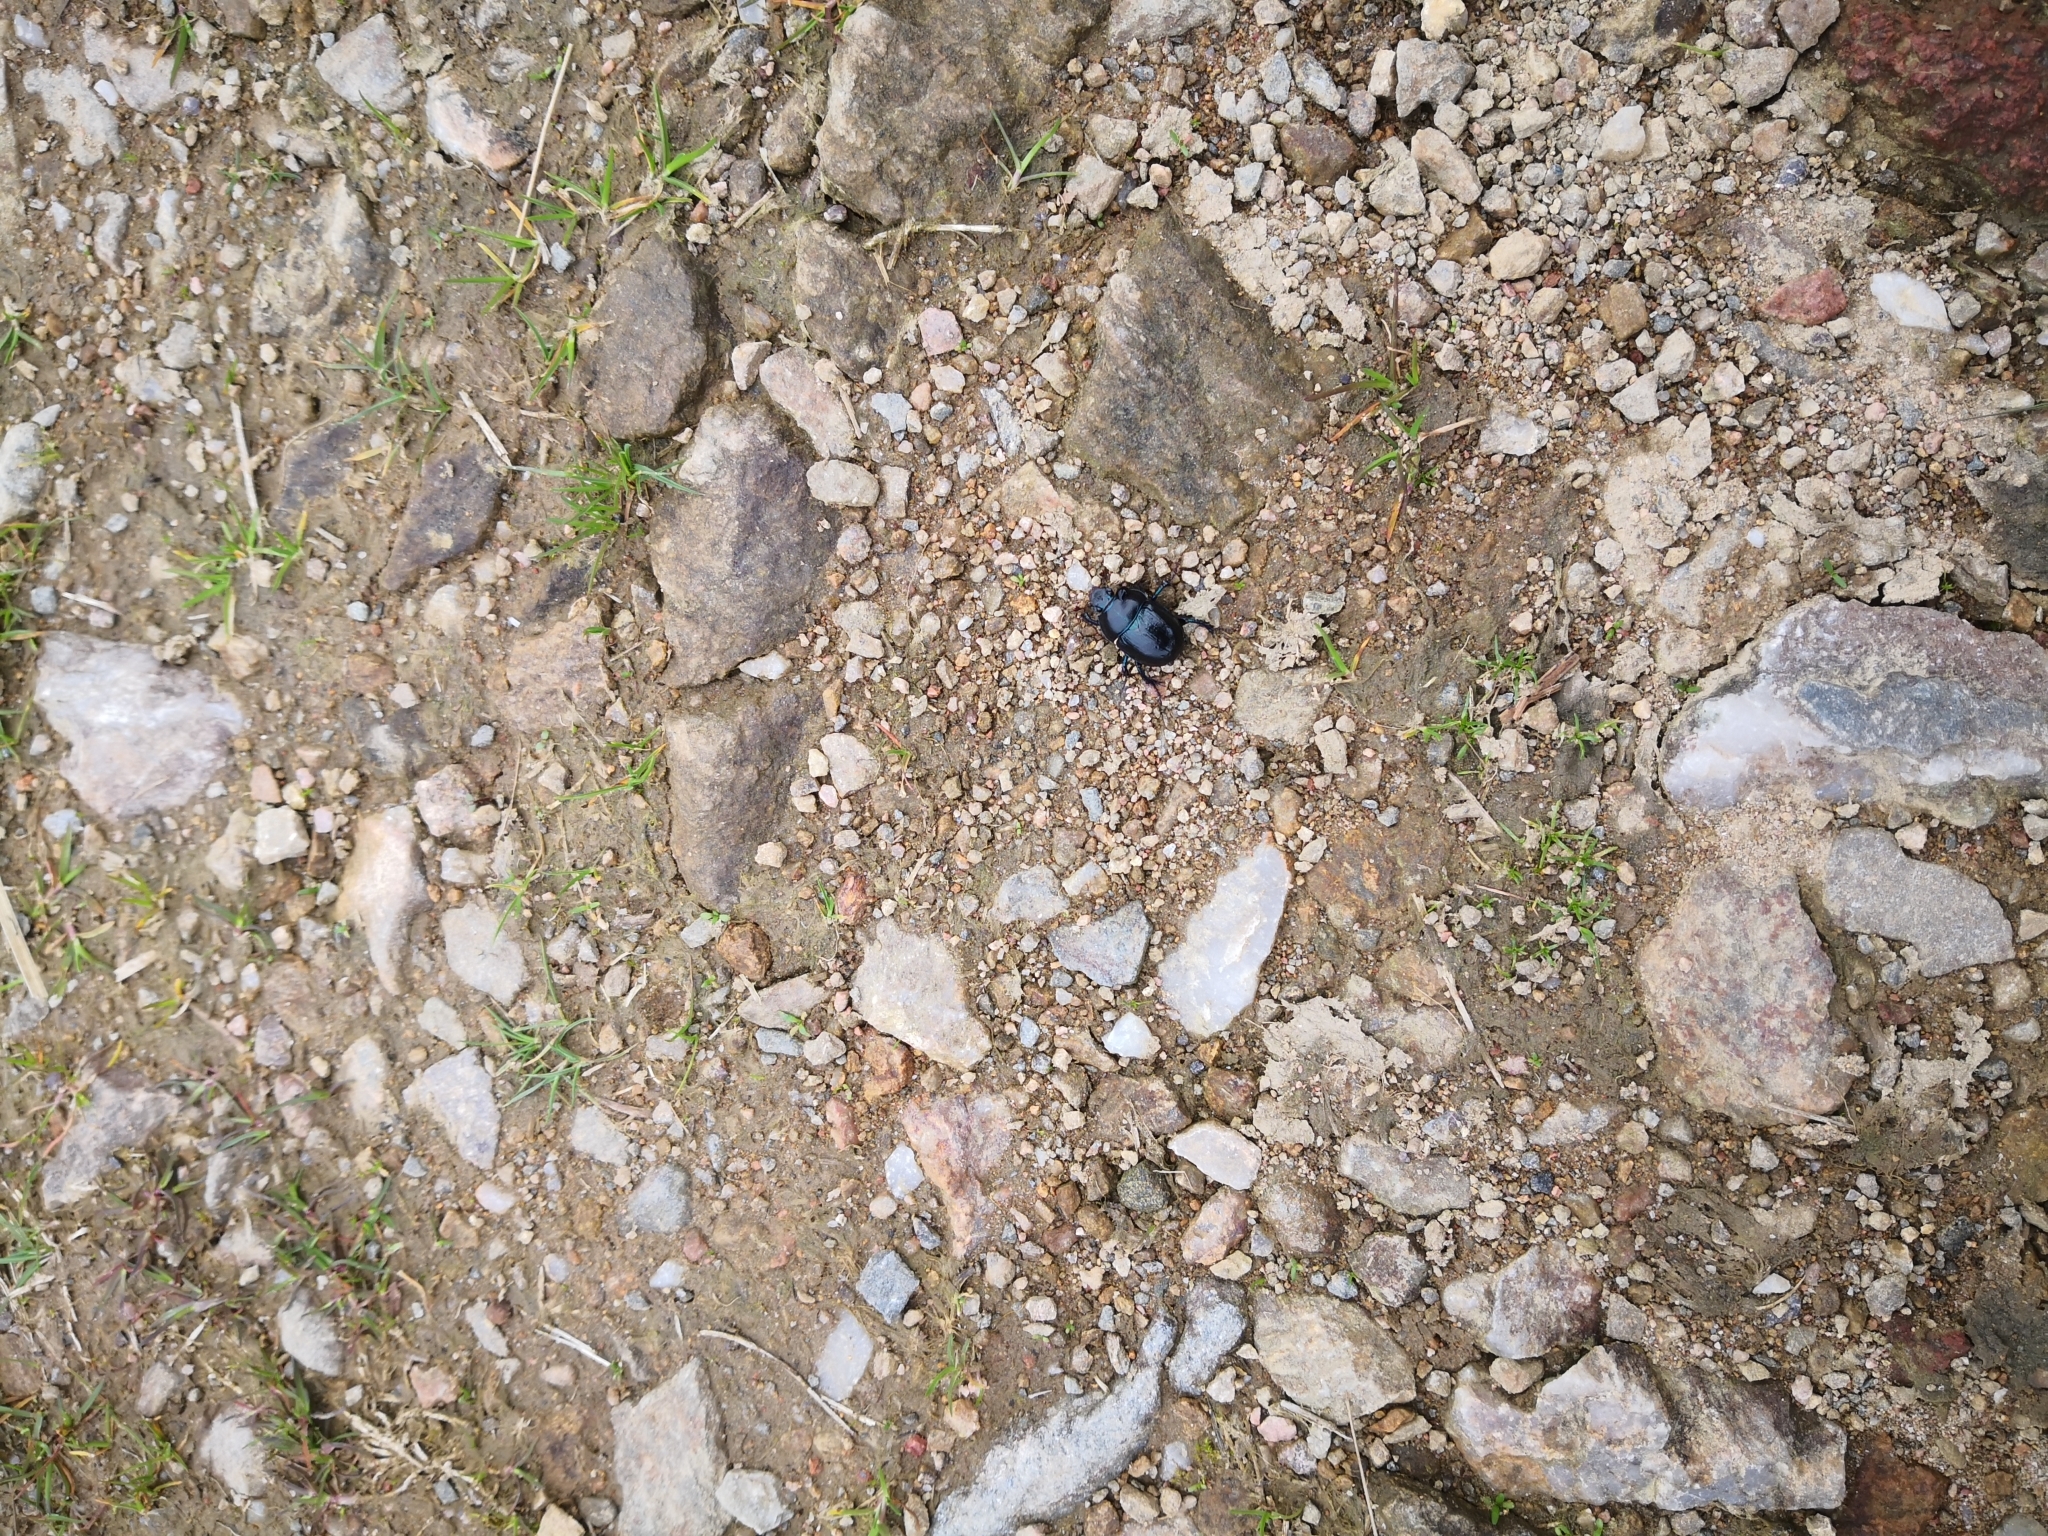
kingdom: Animalia
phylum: Arthropoda
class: Insecta
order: Coleoptera
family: Geotrupidae
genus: Anoplotrupes
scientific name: Anoplotrupes stercorosus
